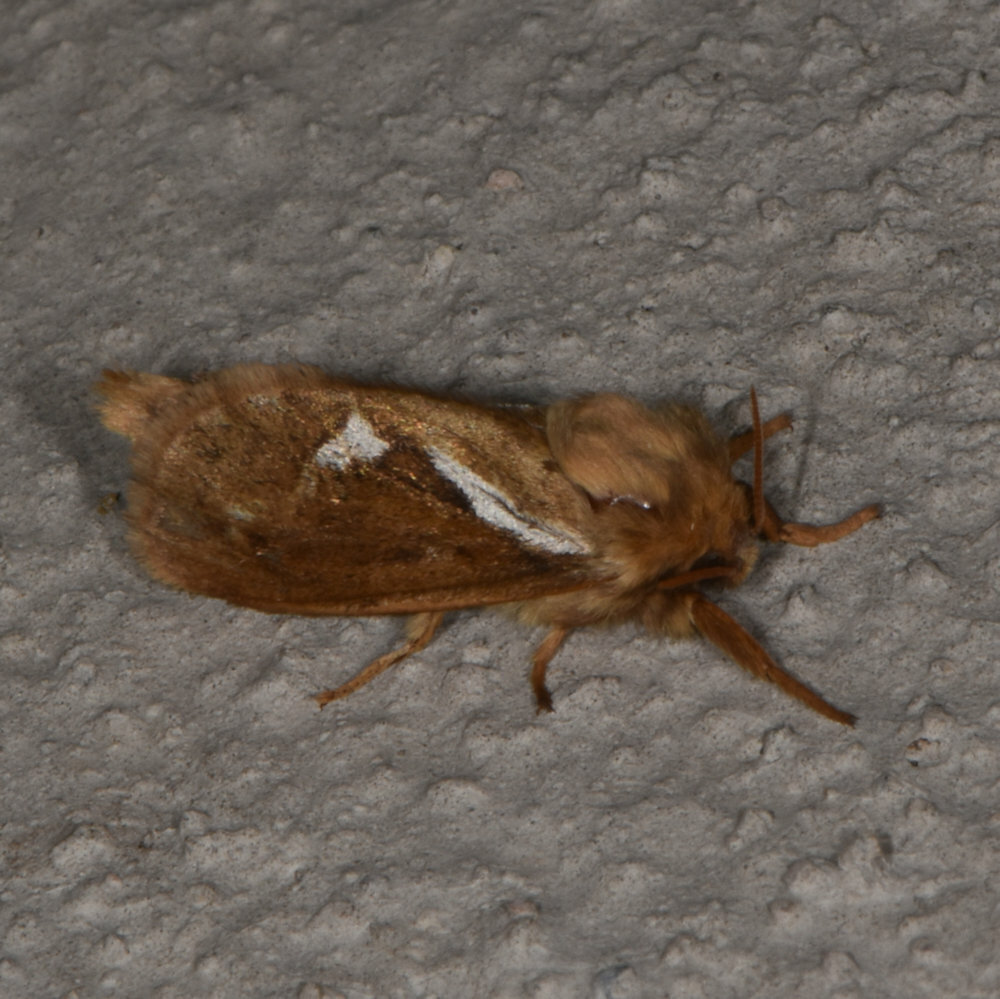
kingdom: Animalia
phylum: Arthropoda
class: Insecta
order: Lepidoptera
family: Hepialidae
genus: Korscheltellus
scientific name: Korscheltellus lupulina
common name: Common swift
